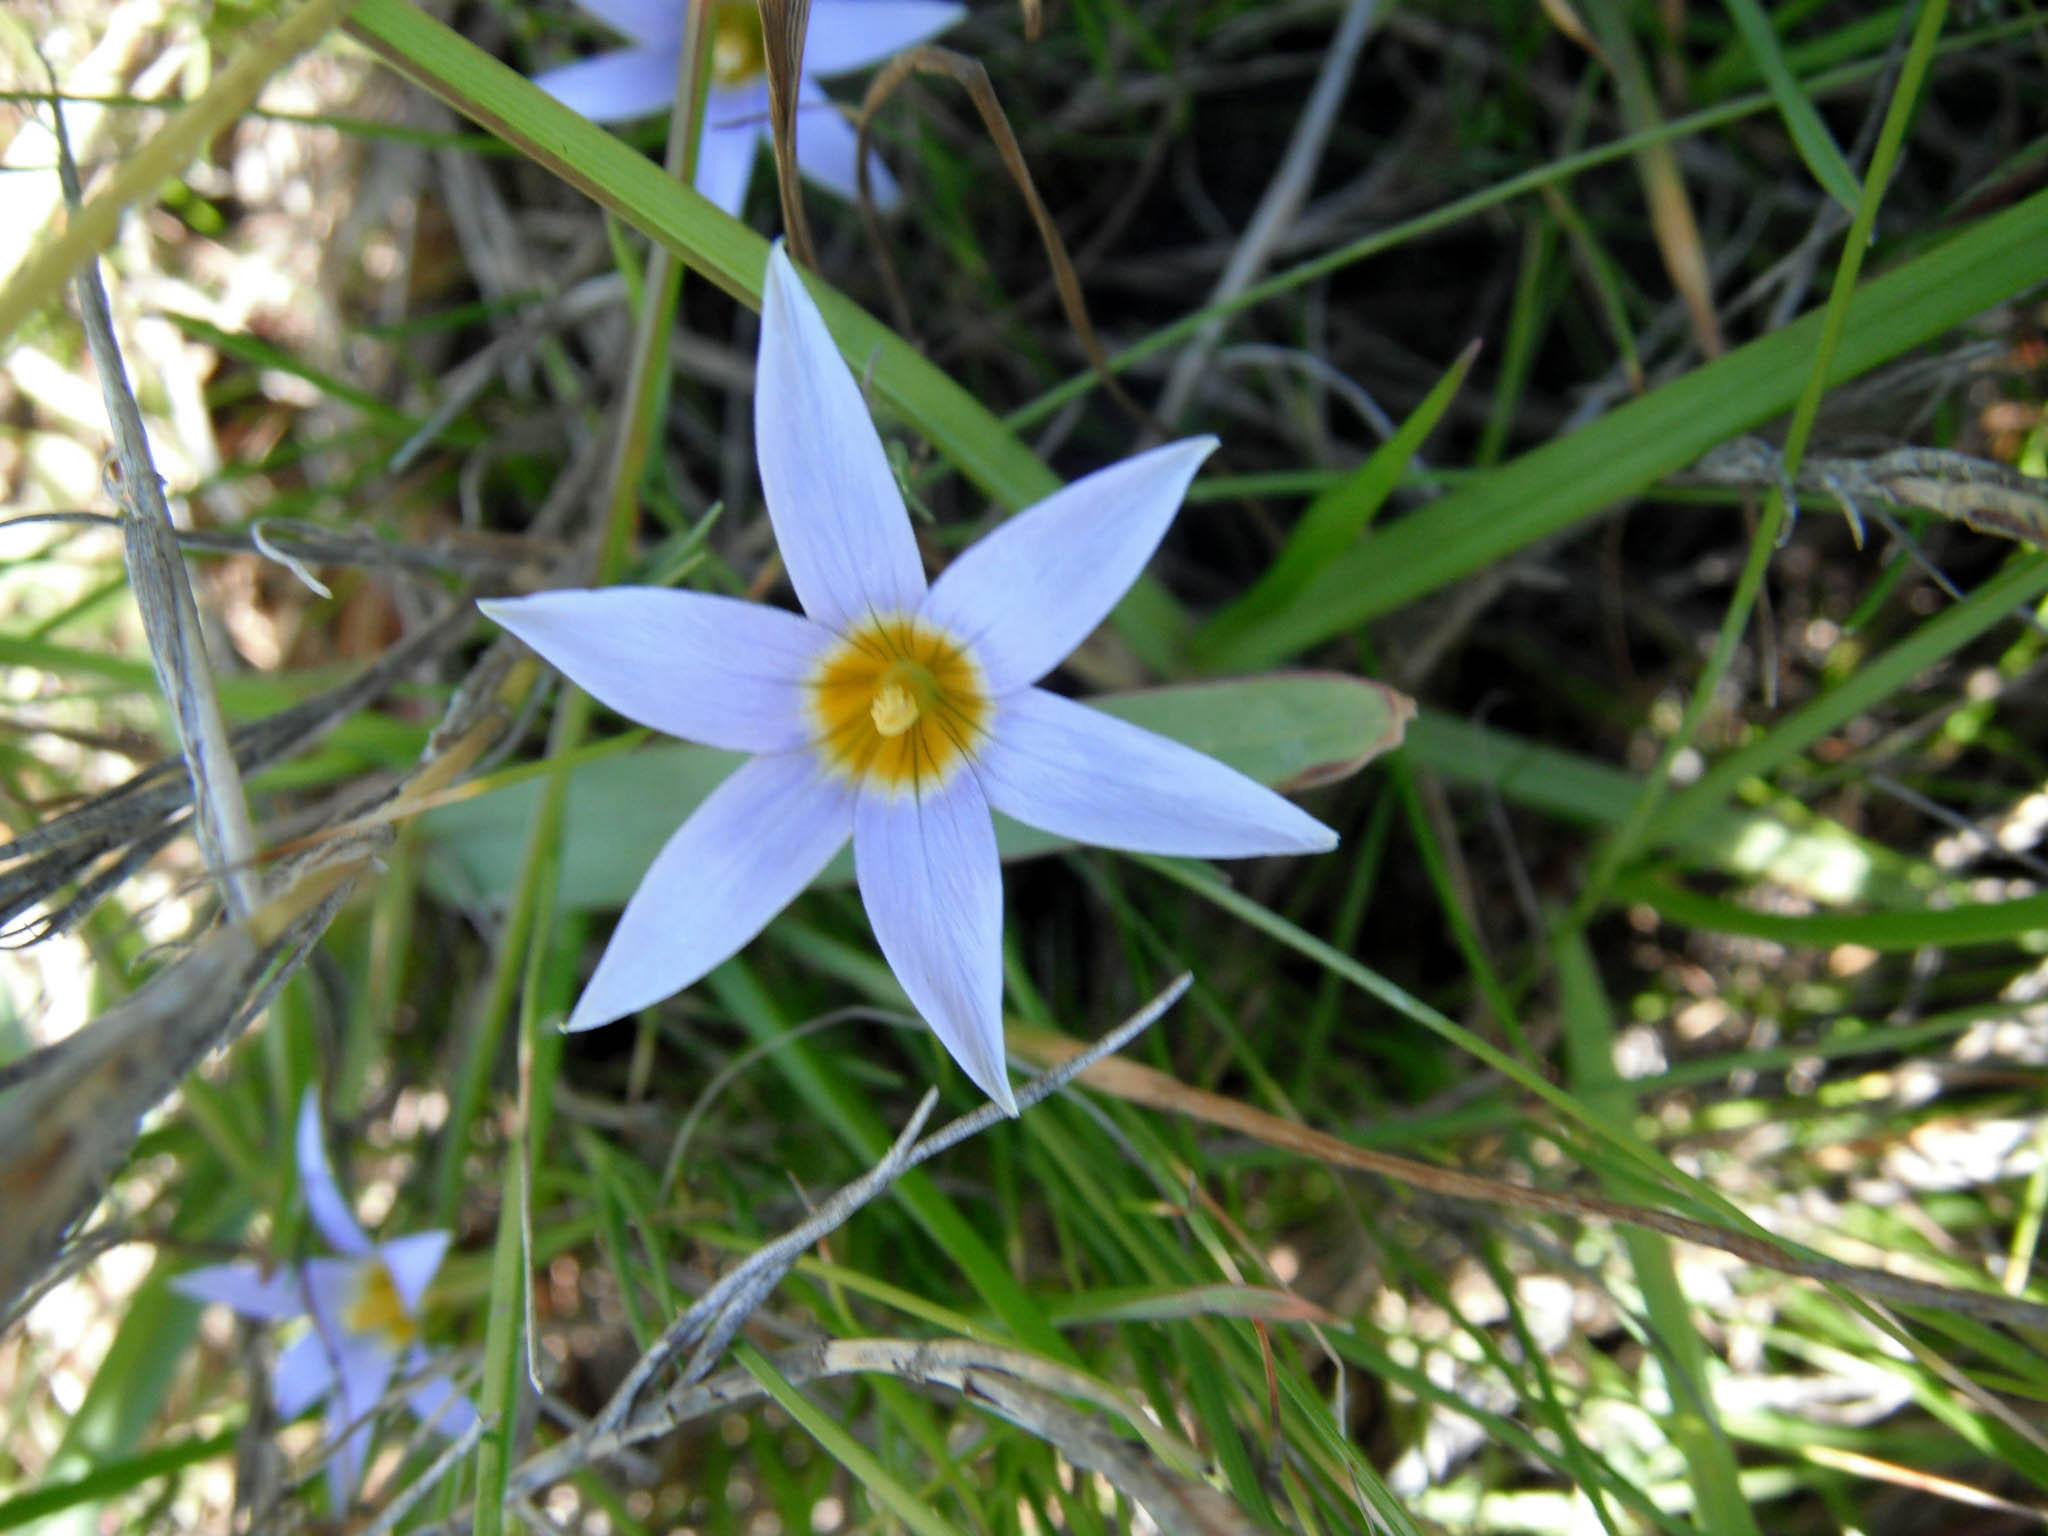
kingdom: Plantae
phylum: Tracheophyta
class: Liliopsida
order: Asparagales
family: Iridaceae
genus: Romulea
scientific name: Romulea tabularis
